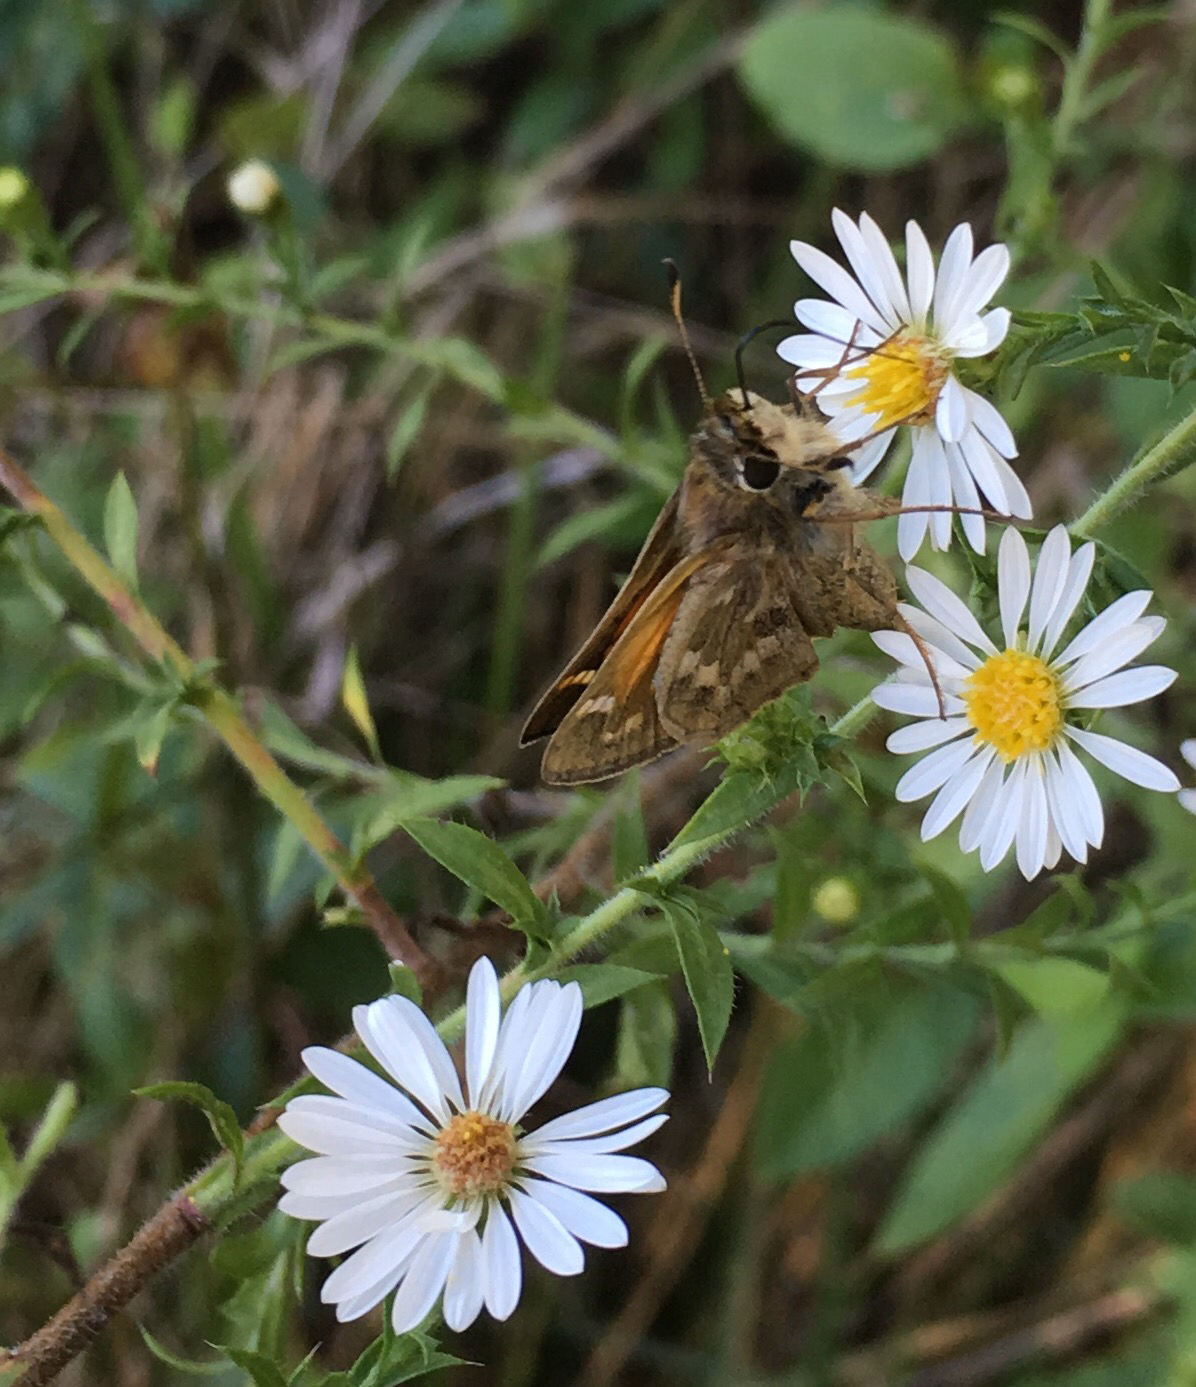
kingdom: Animalia
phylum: Arthropoda
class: Insecta
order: Lepidoptera
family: Hesperiidae
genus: Atalopedes
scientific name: Atalopedes
